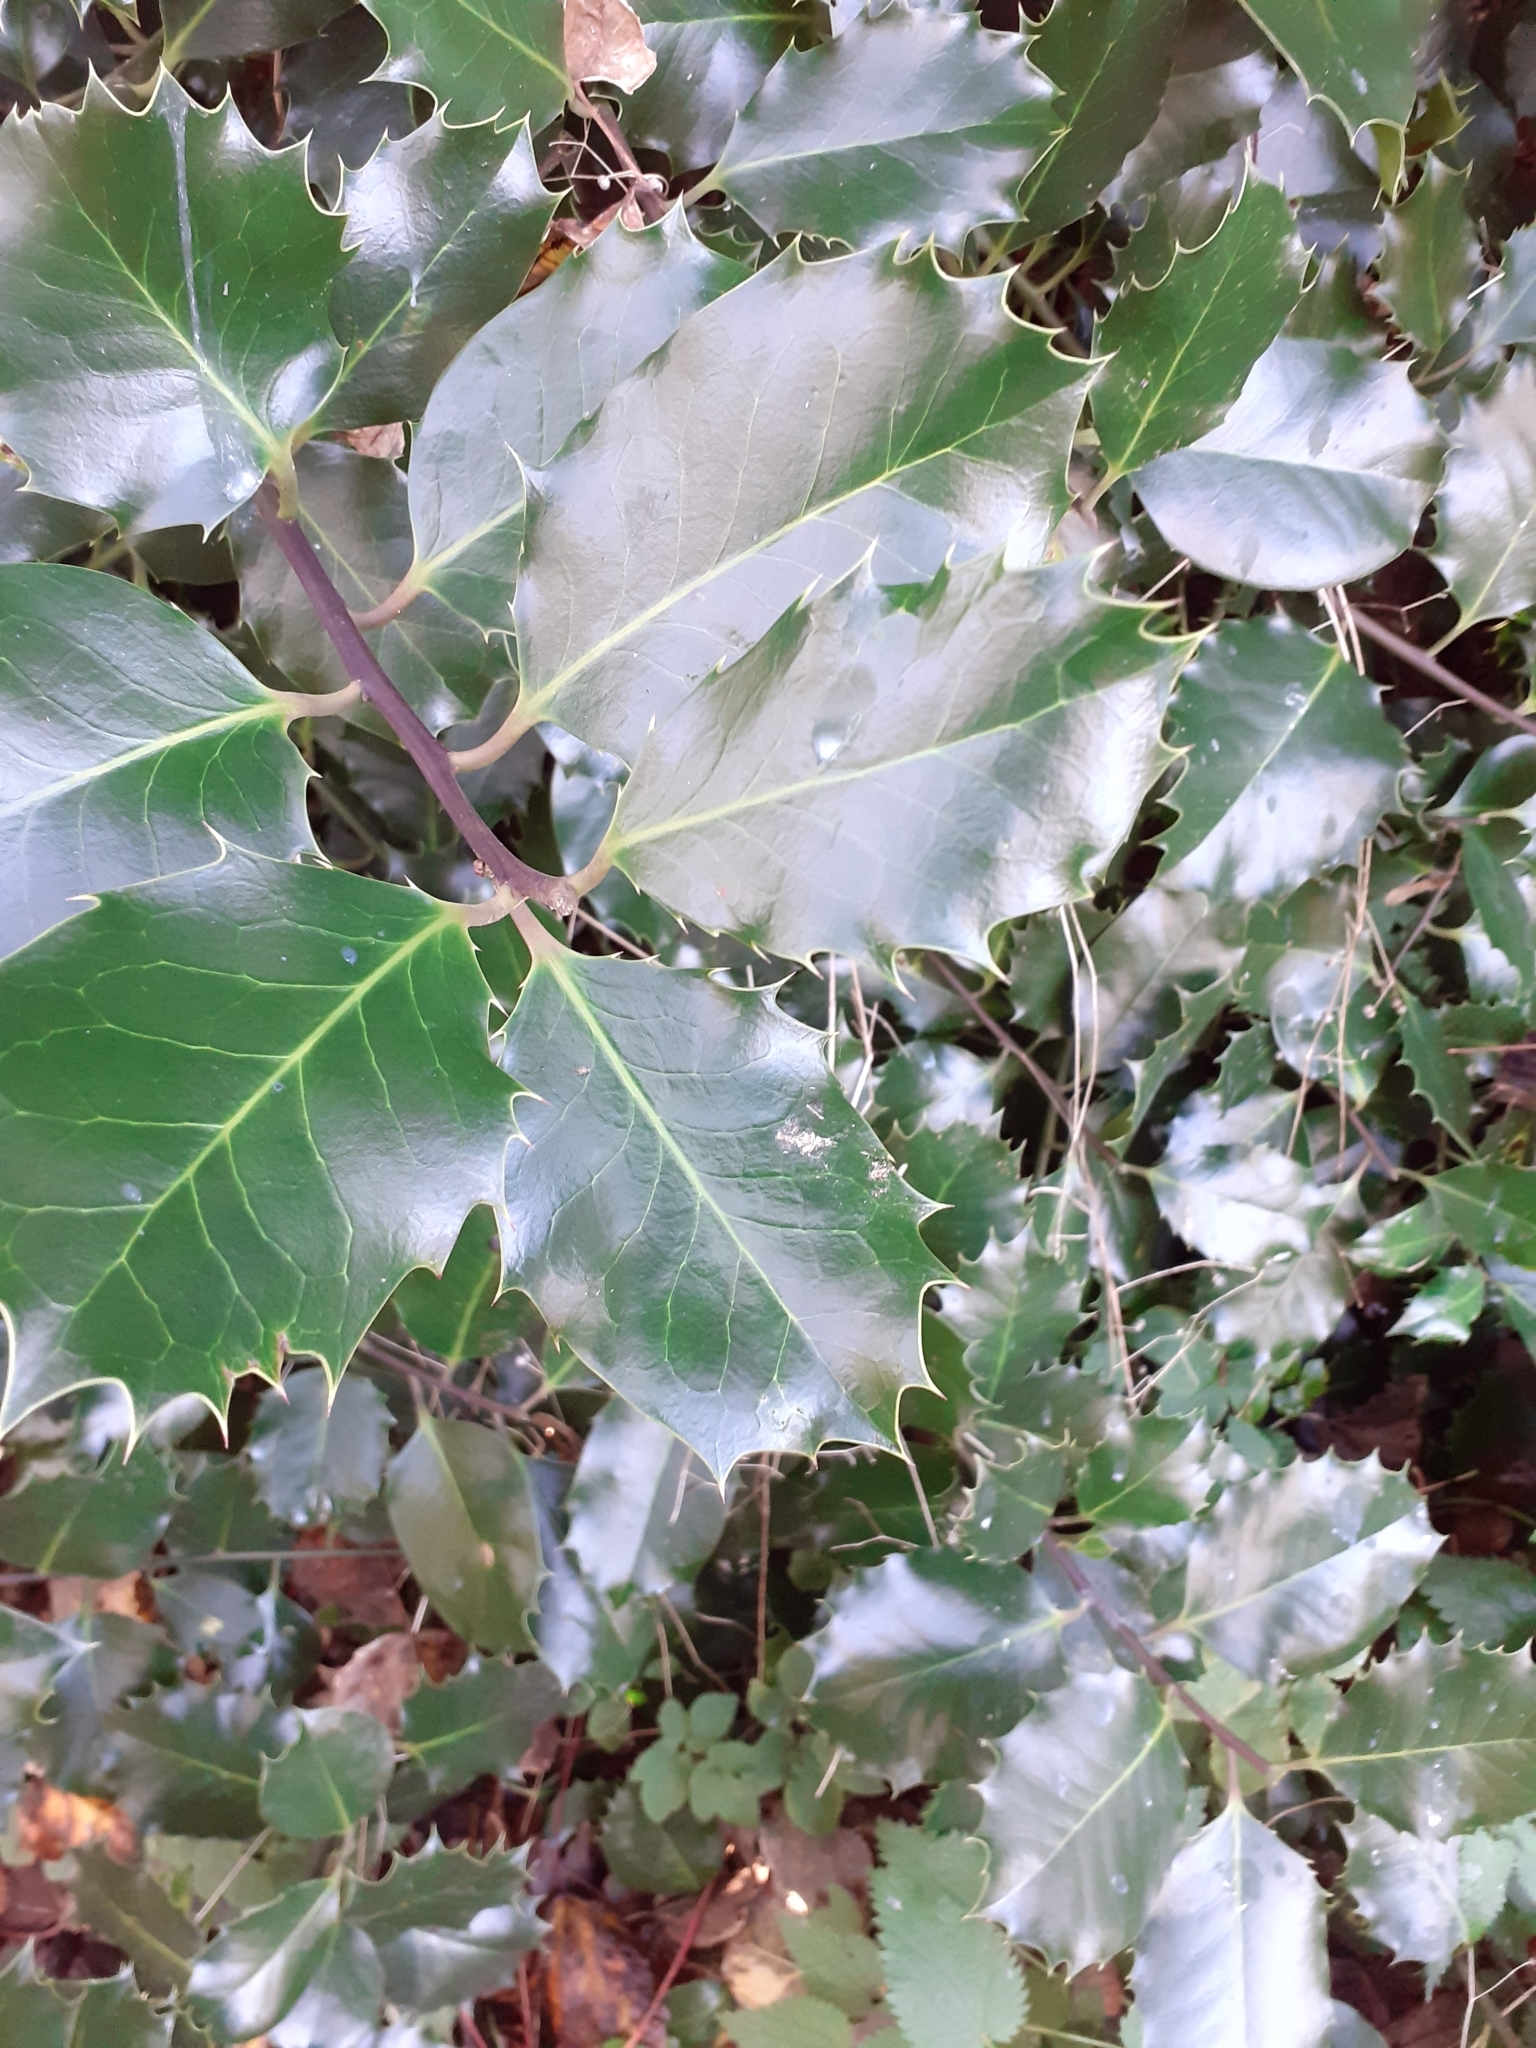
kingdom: Plantae
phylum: Tracheophyta
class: Magnoliopsida
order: Aquifoliales
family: Aquifoliaceae
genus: Ilex
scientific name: Ilex aquifolium
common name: English holly
